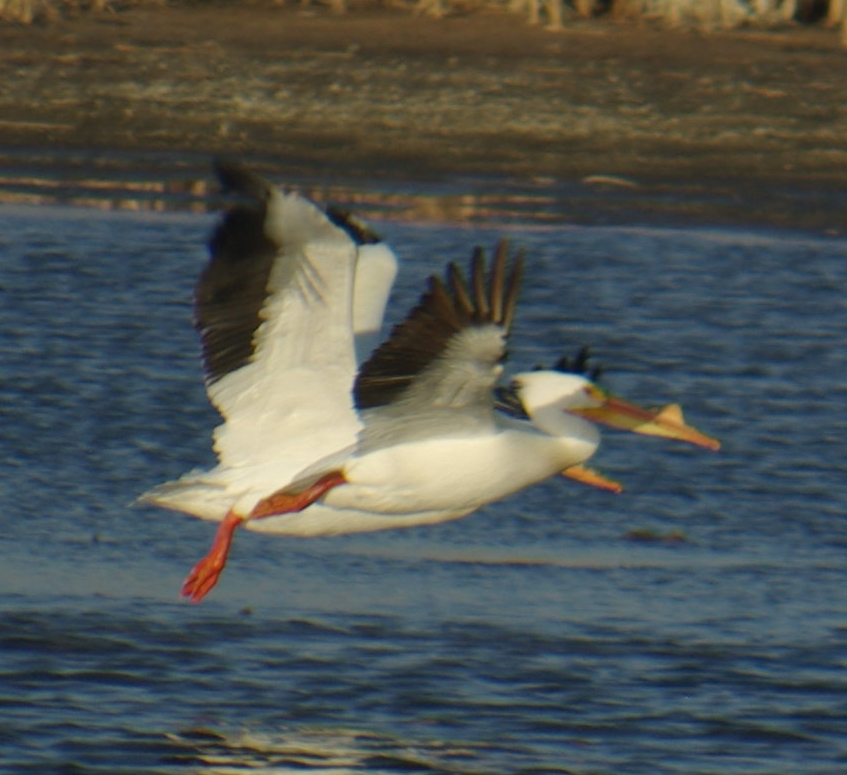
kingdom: Animalia
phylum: Chordata
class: Aves
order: Pelecaniformes
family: Pelecanidae
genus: Pelecanus
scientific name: Pelecanus erythrorhynchos
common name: American white pelican
